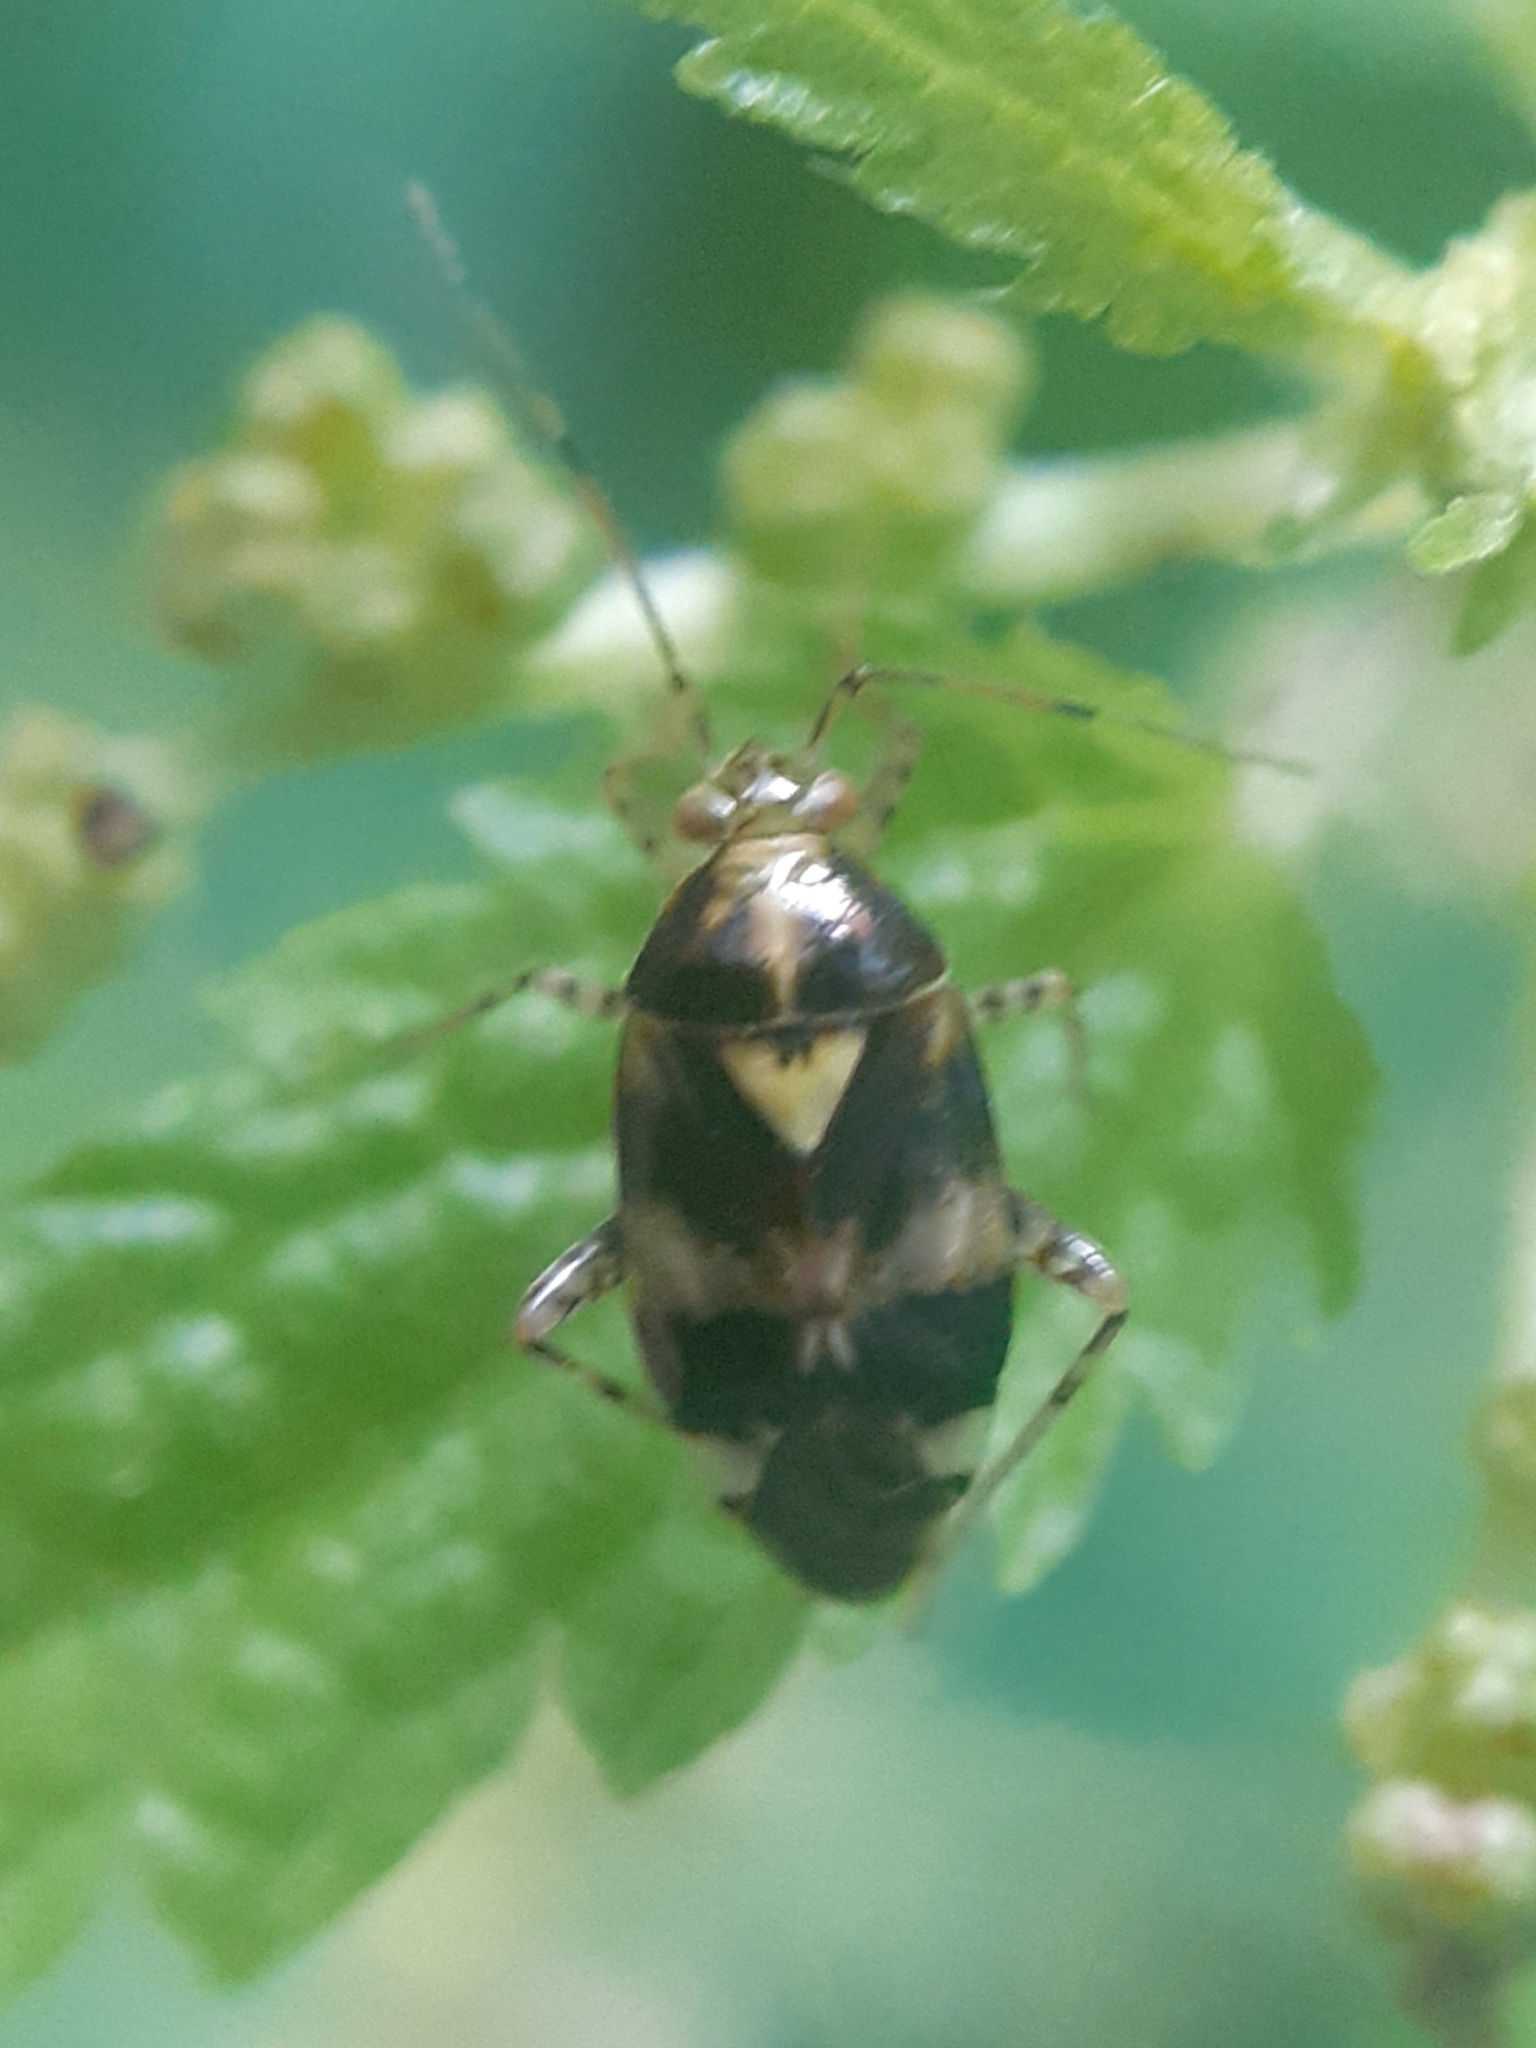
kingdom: Animalia
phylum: Arthropoda
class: Insecta
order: Hemiptera
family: Miridae
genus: Liocoris
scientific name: Liocoris tripustulatus
